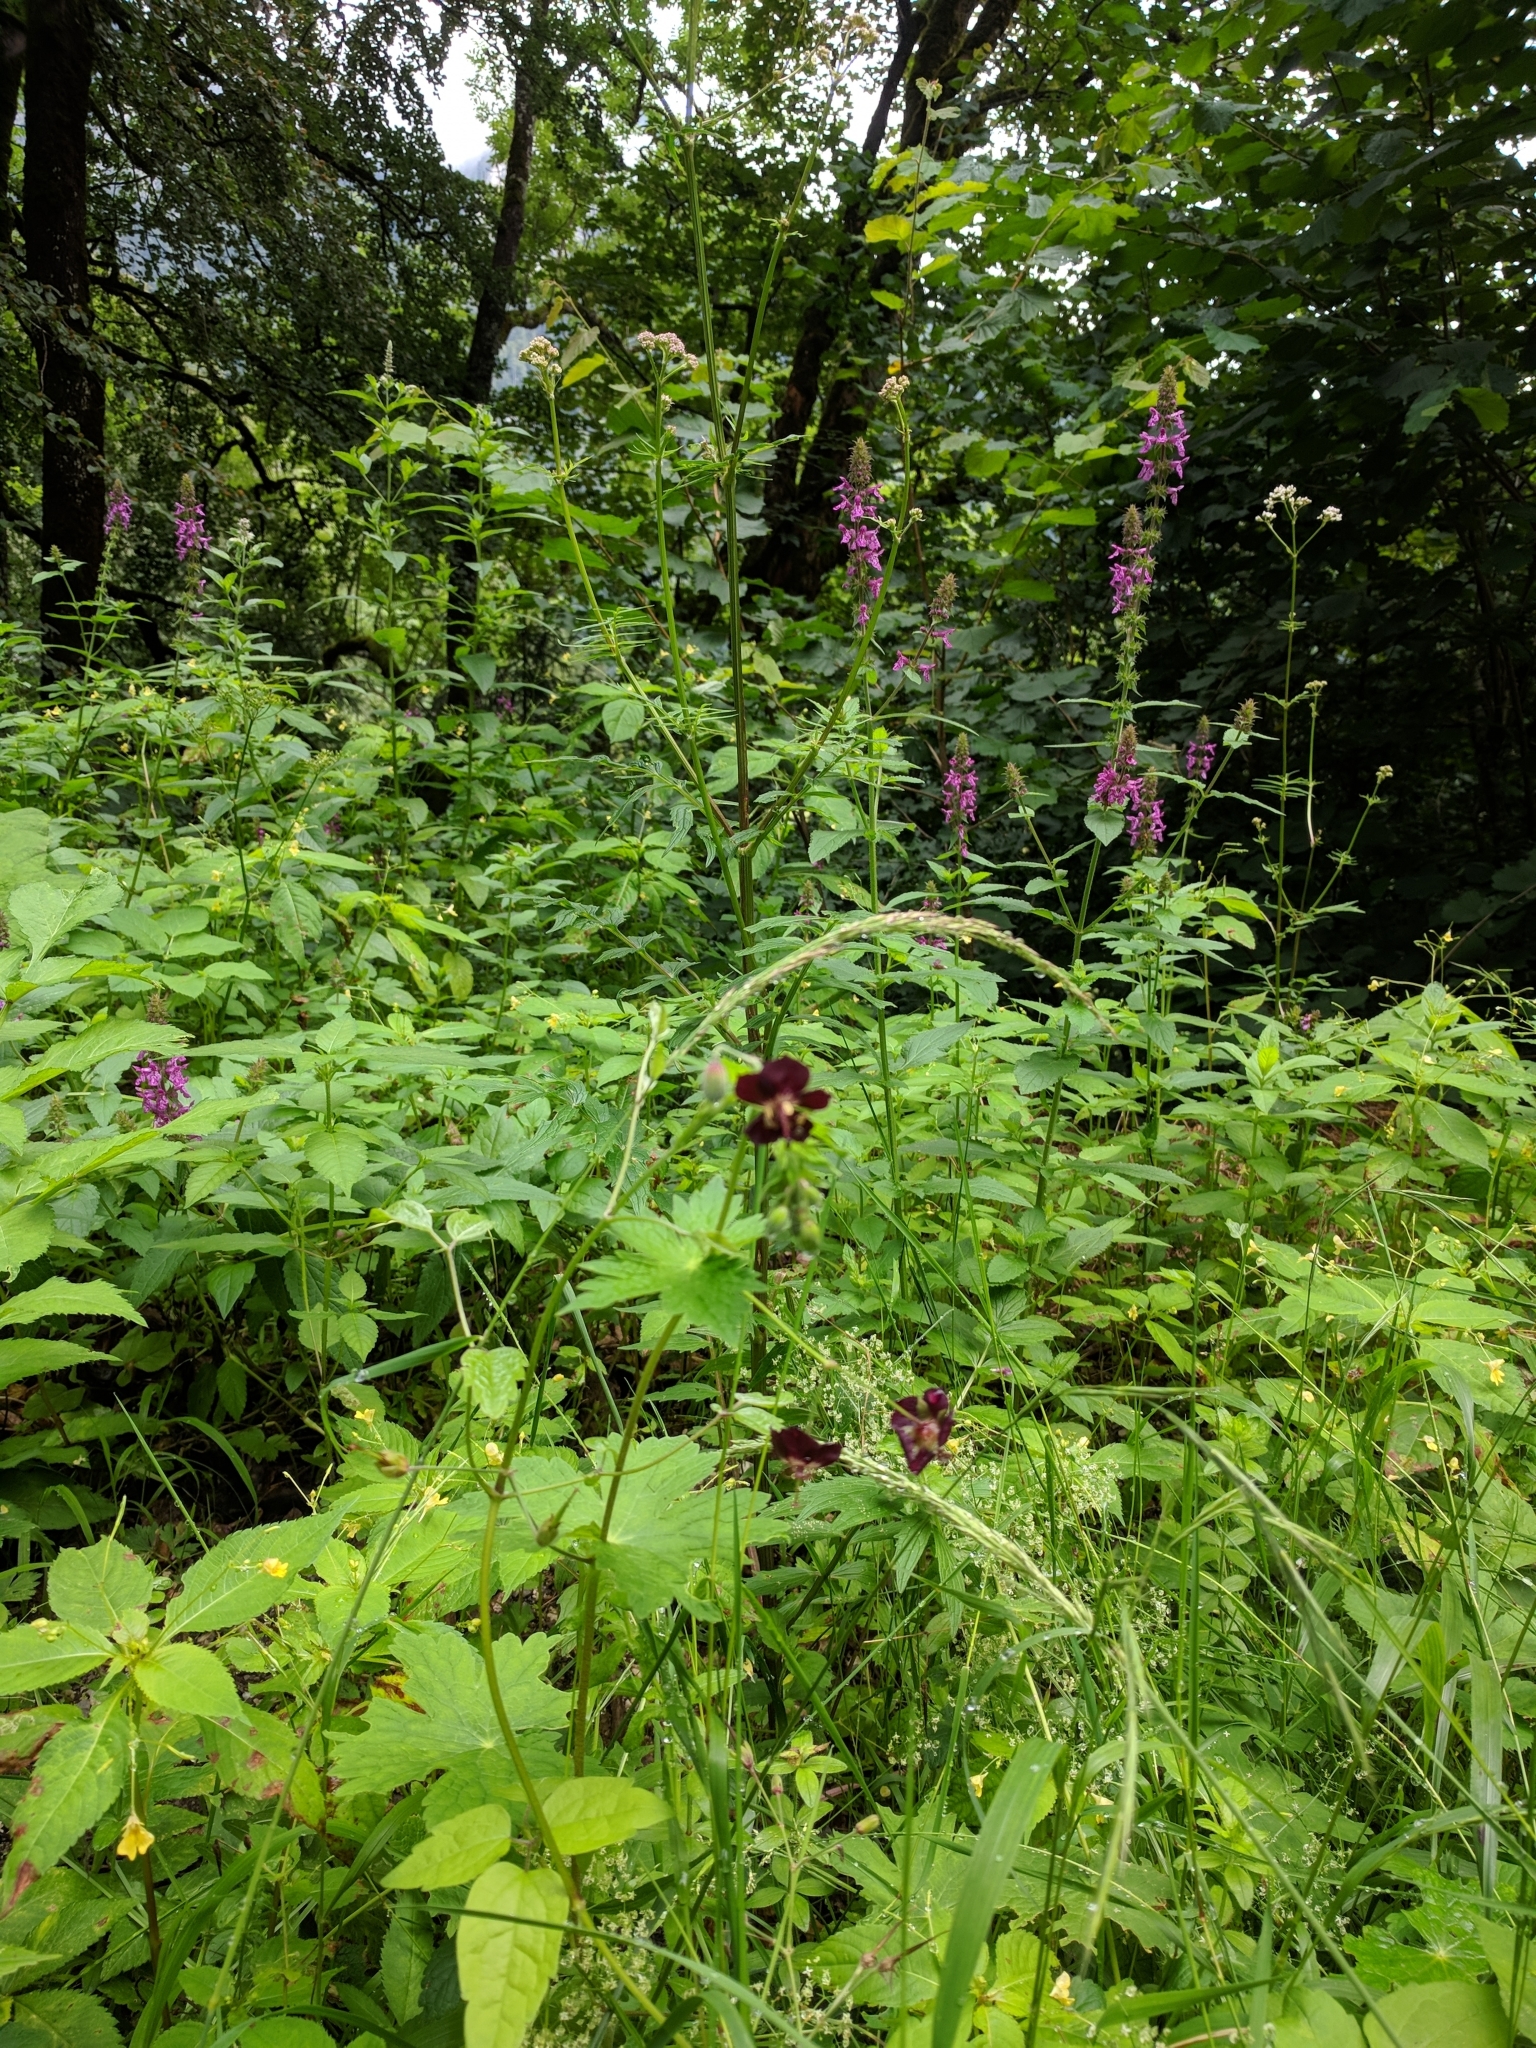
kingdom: Plantae
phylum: Tracheophyta
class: Magnoliopsida
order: Geraniales
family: Geraniaceae
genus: Geranium
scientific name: Geranium phaeum
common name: Dusky crane's-bill
